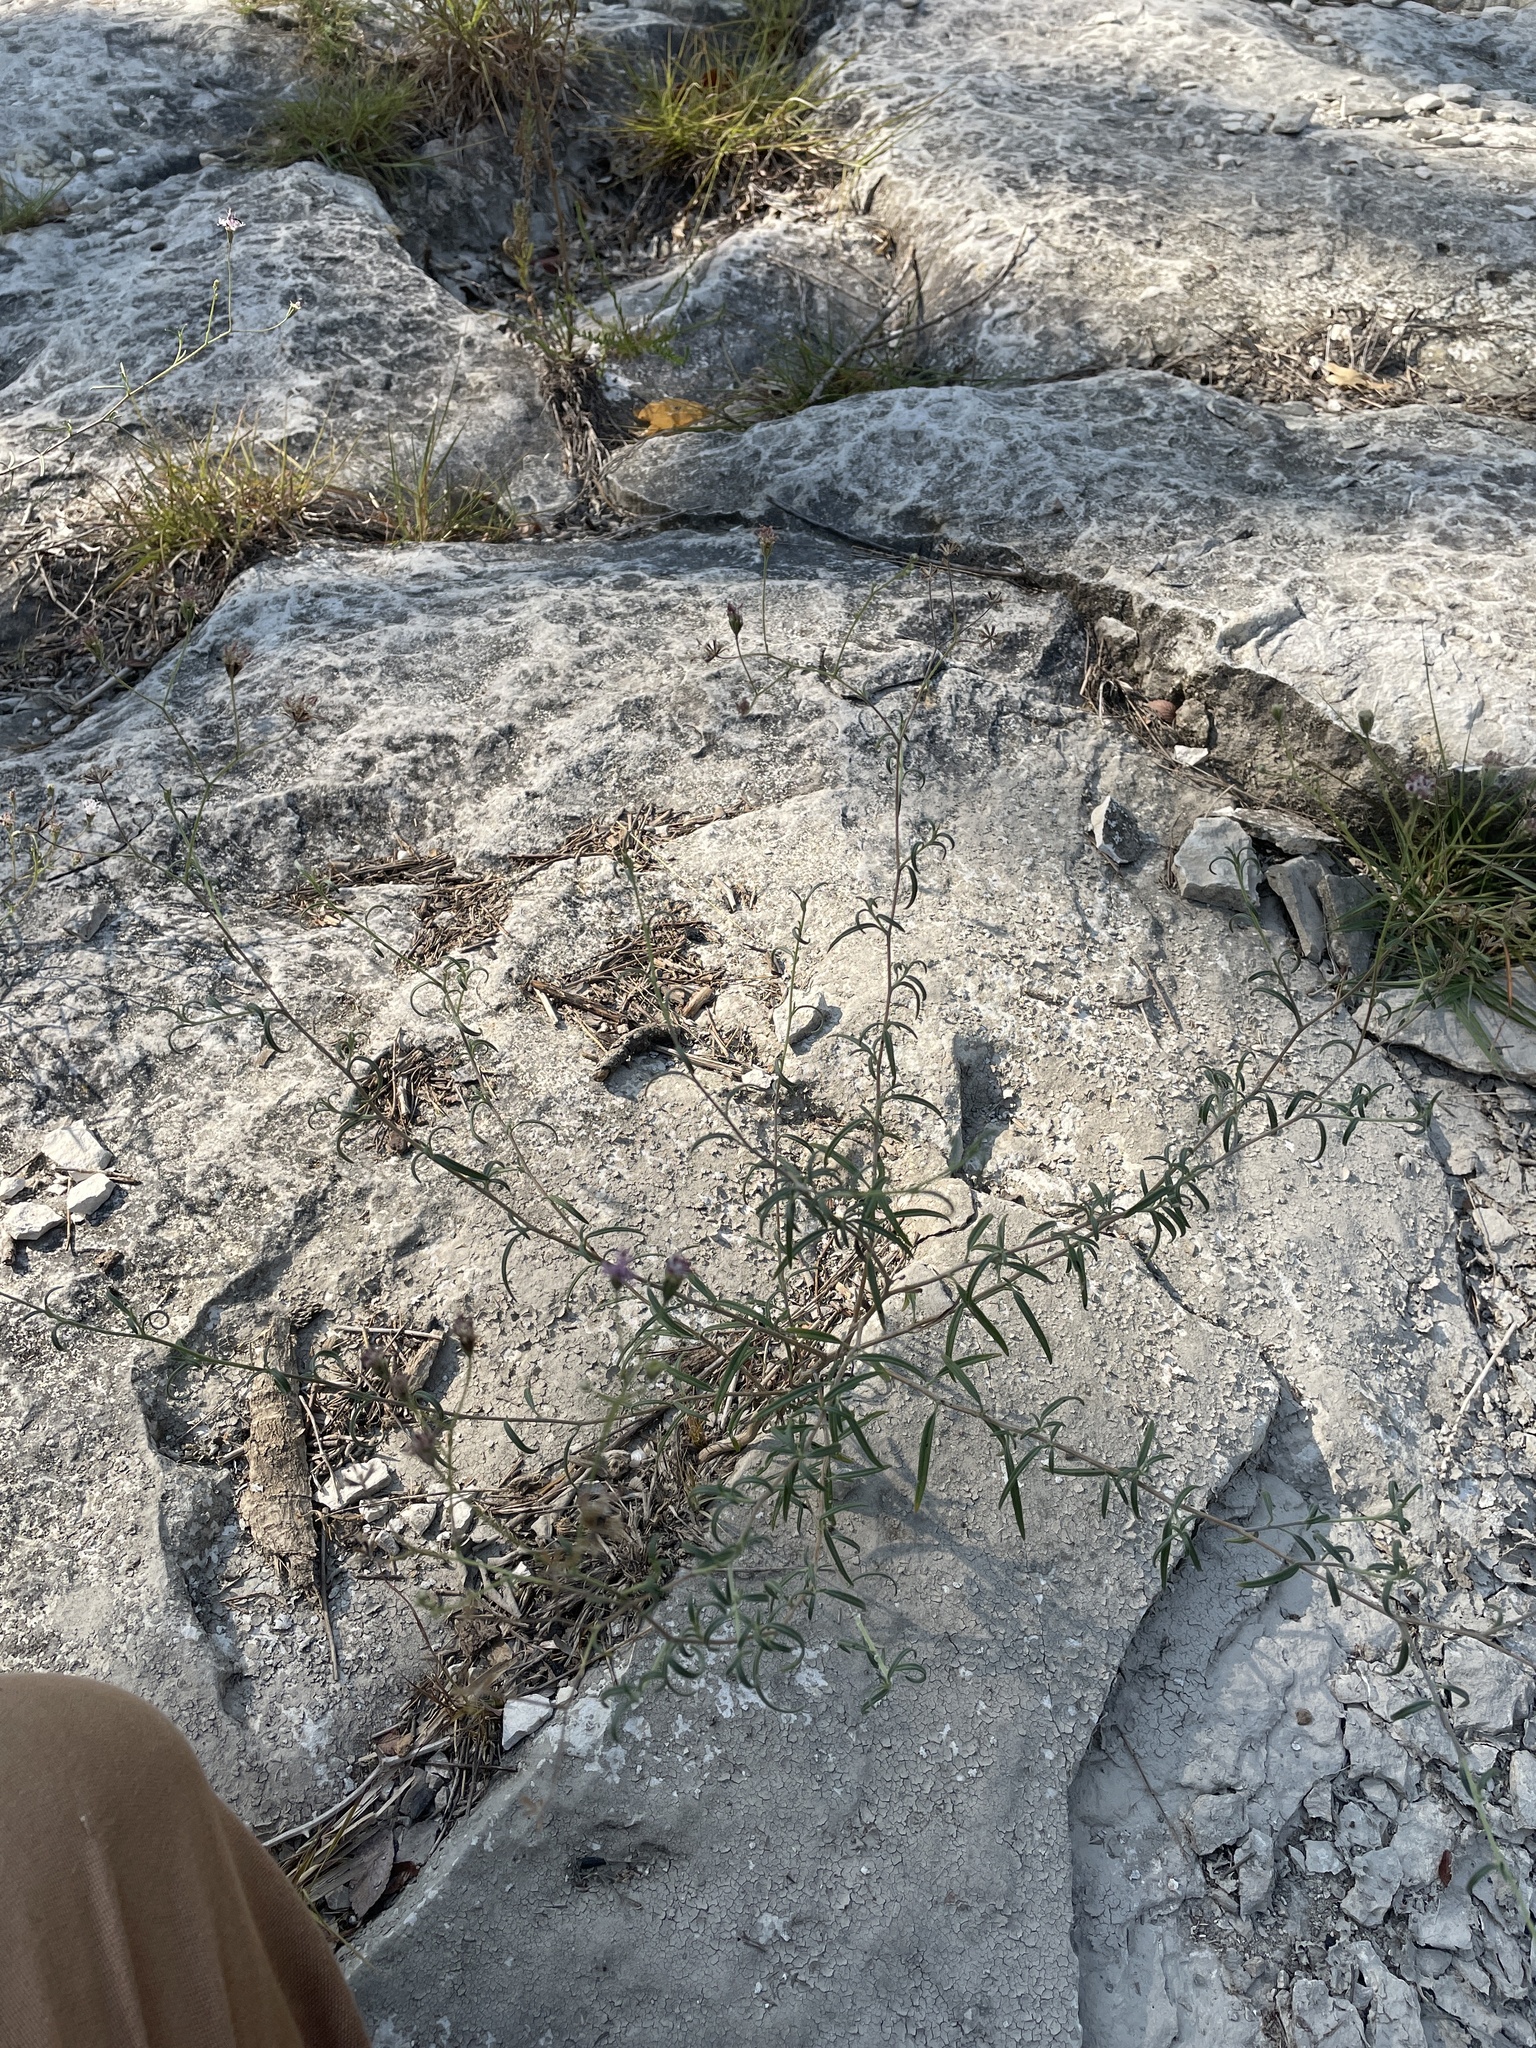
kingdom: Plantae
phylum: Tracheophyta
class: Magnoliopsida
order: Asterales
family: Asteraceae
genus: Palafoxia
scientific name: Palafoxia callosa
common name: Small palafox
